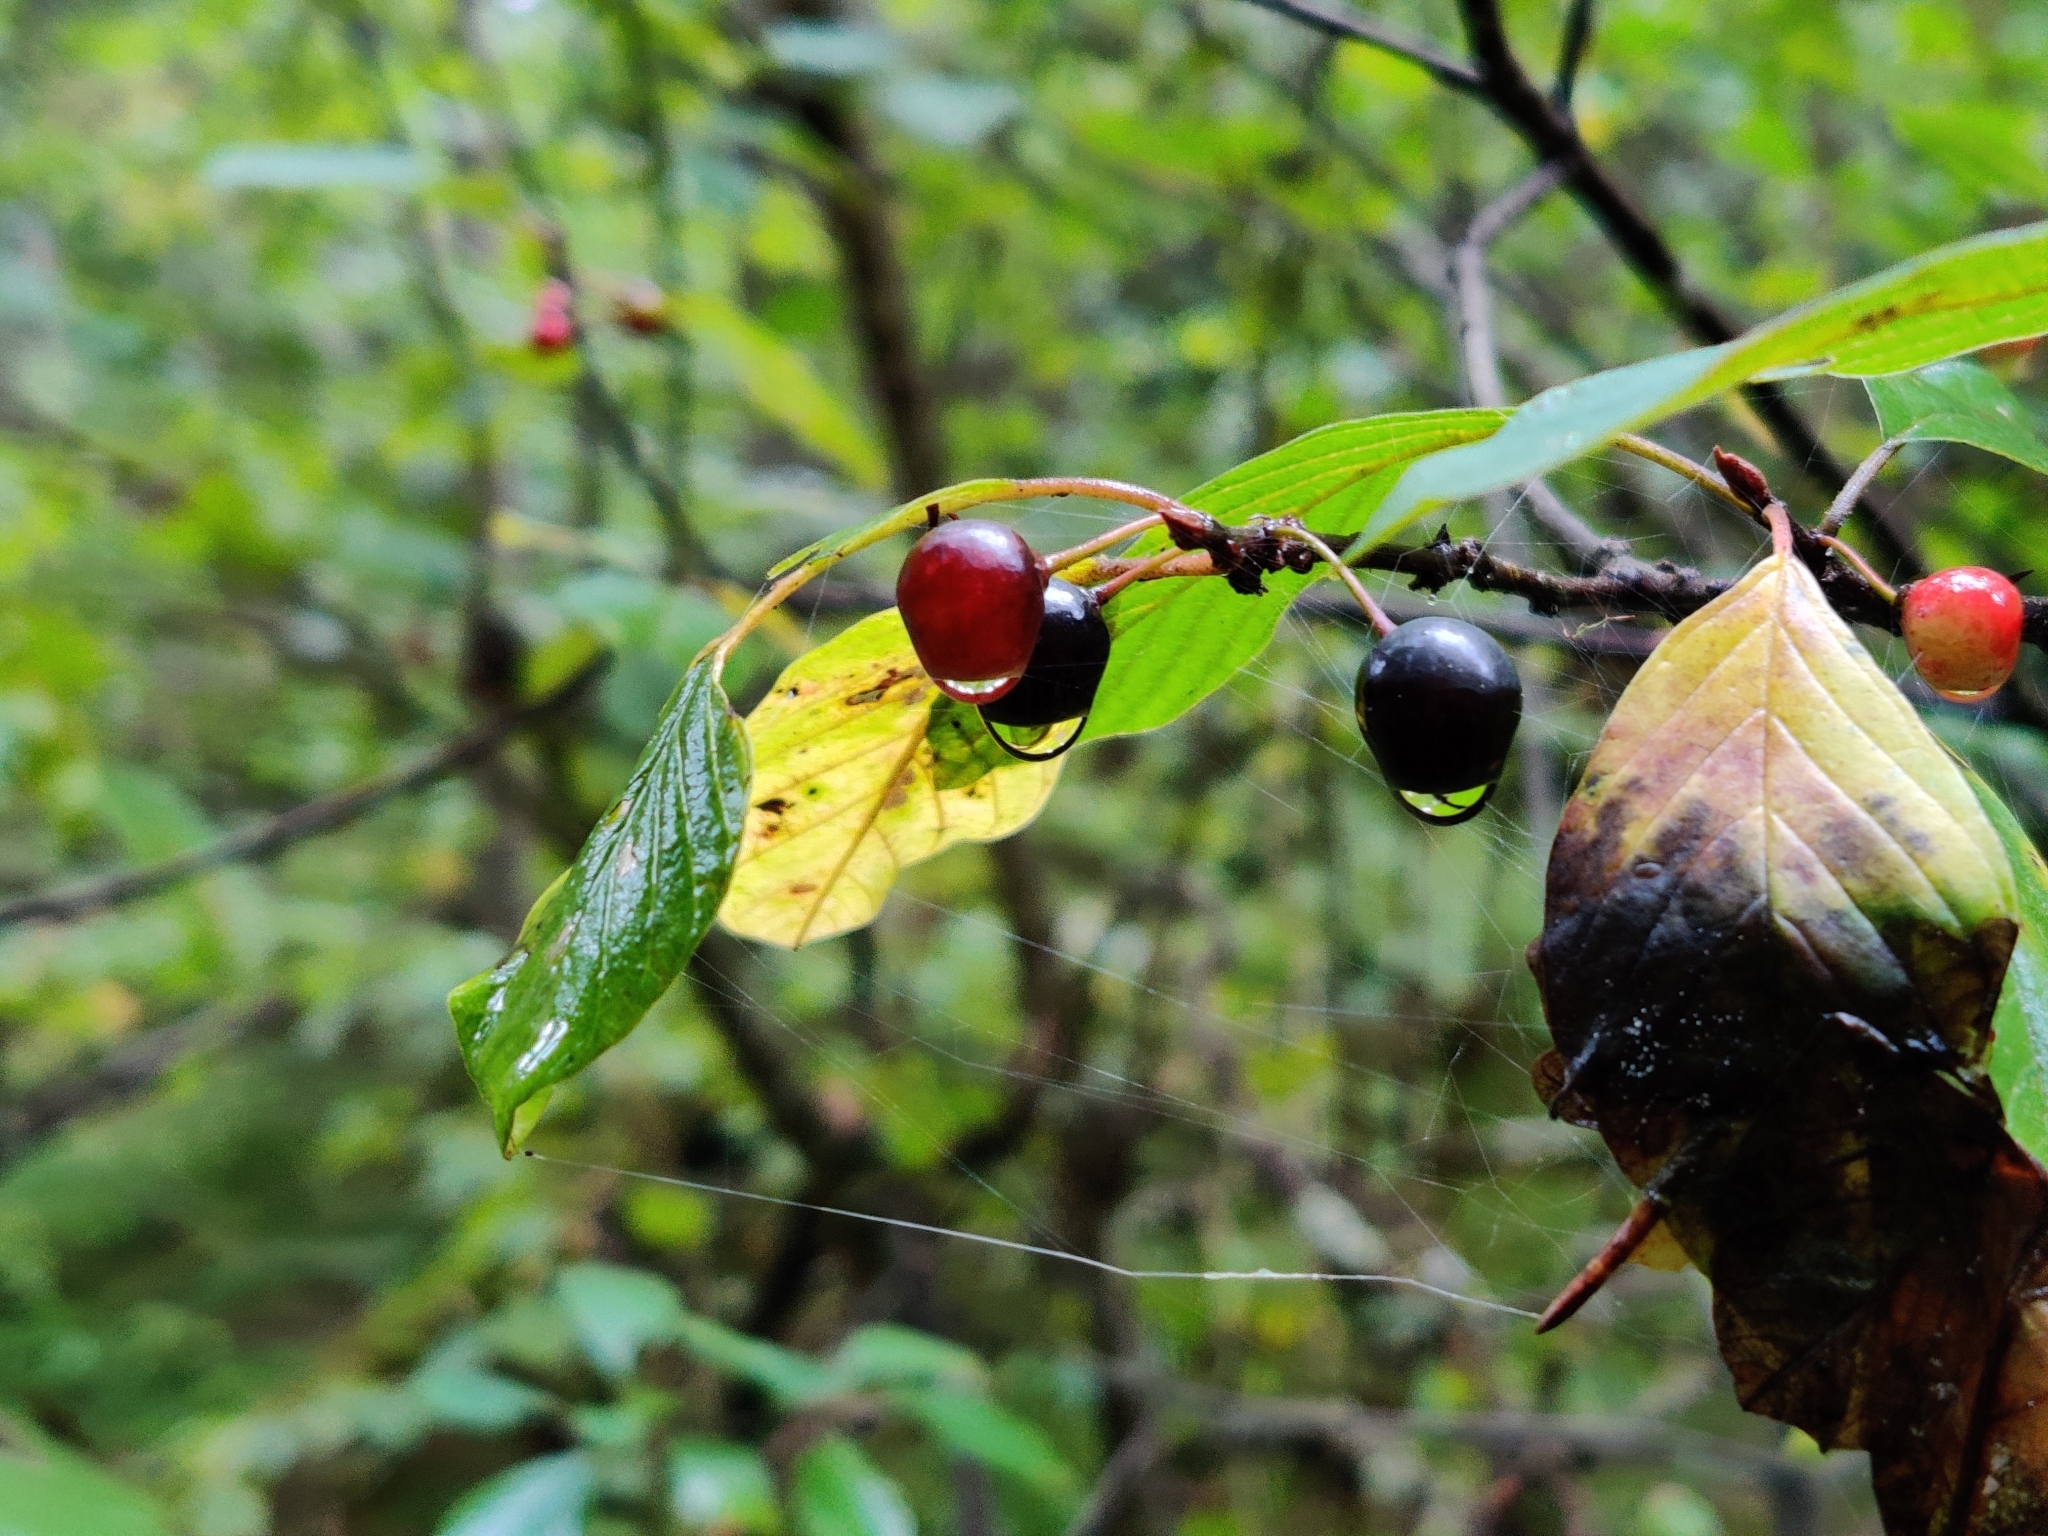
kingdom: Plantae
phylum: Tracheophyta
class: Magnoliopsida
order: Rosales
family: Rhamnaceae
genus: Frangula
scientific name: Frangula alnus
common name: Alder buckthorn
